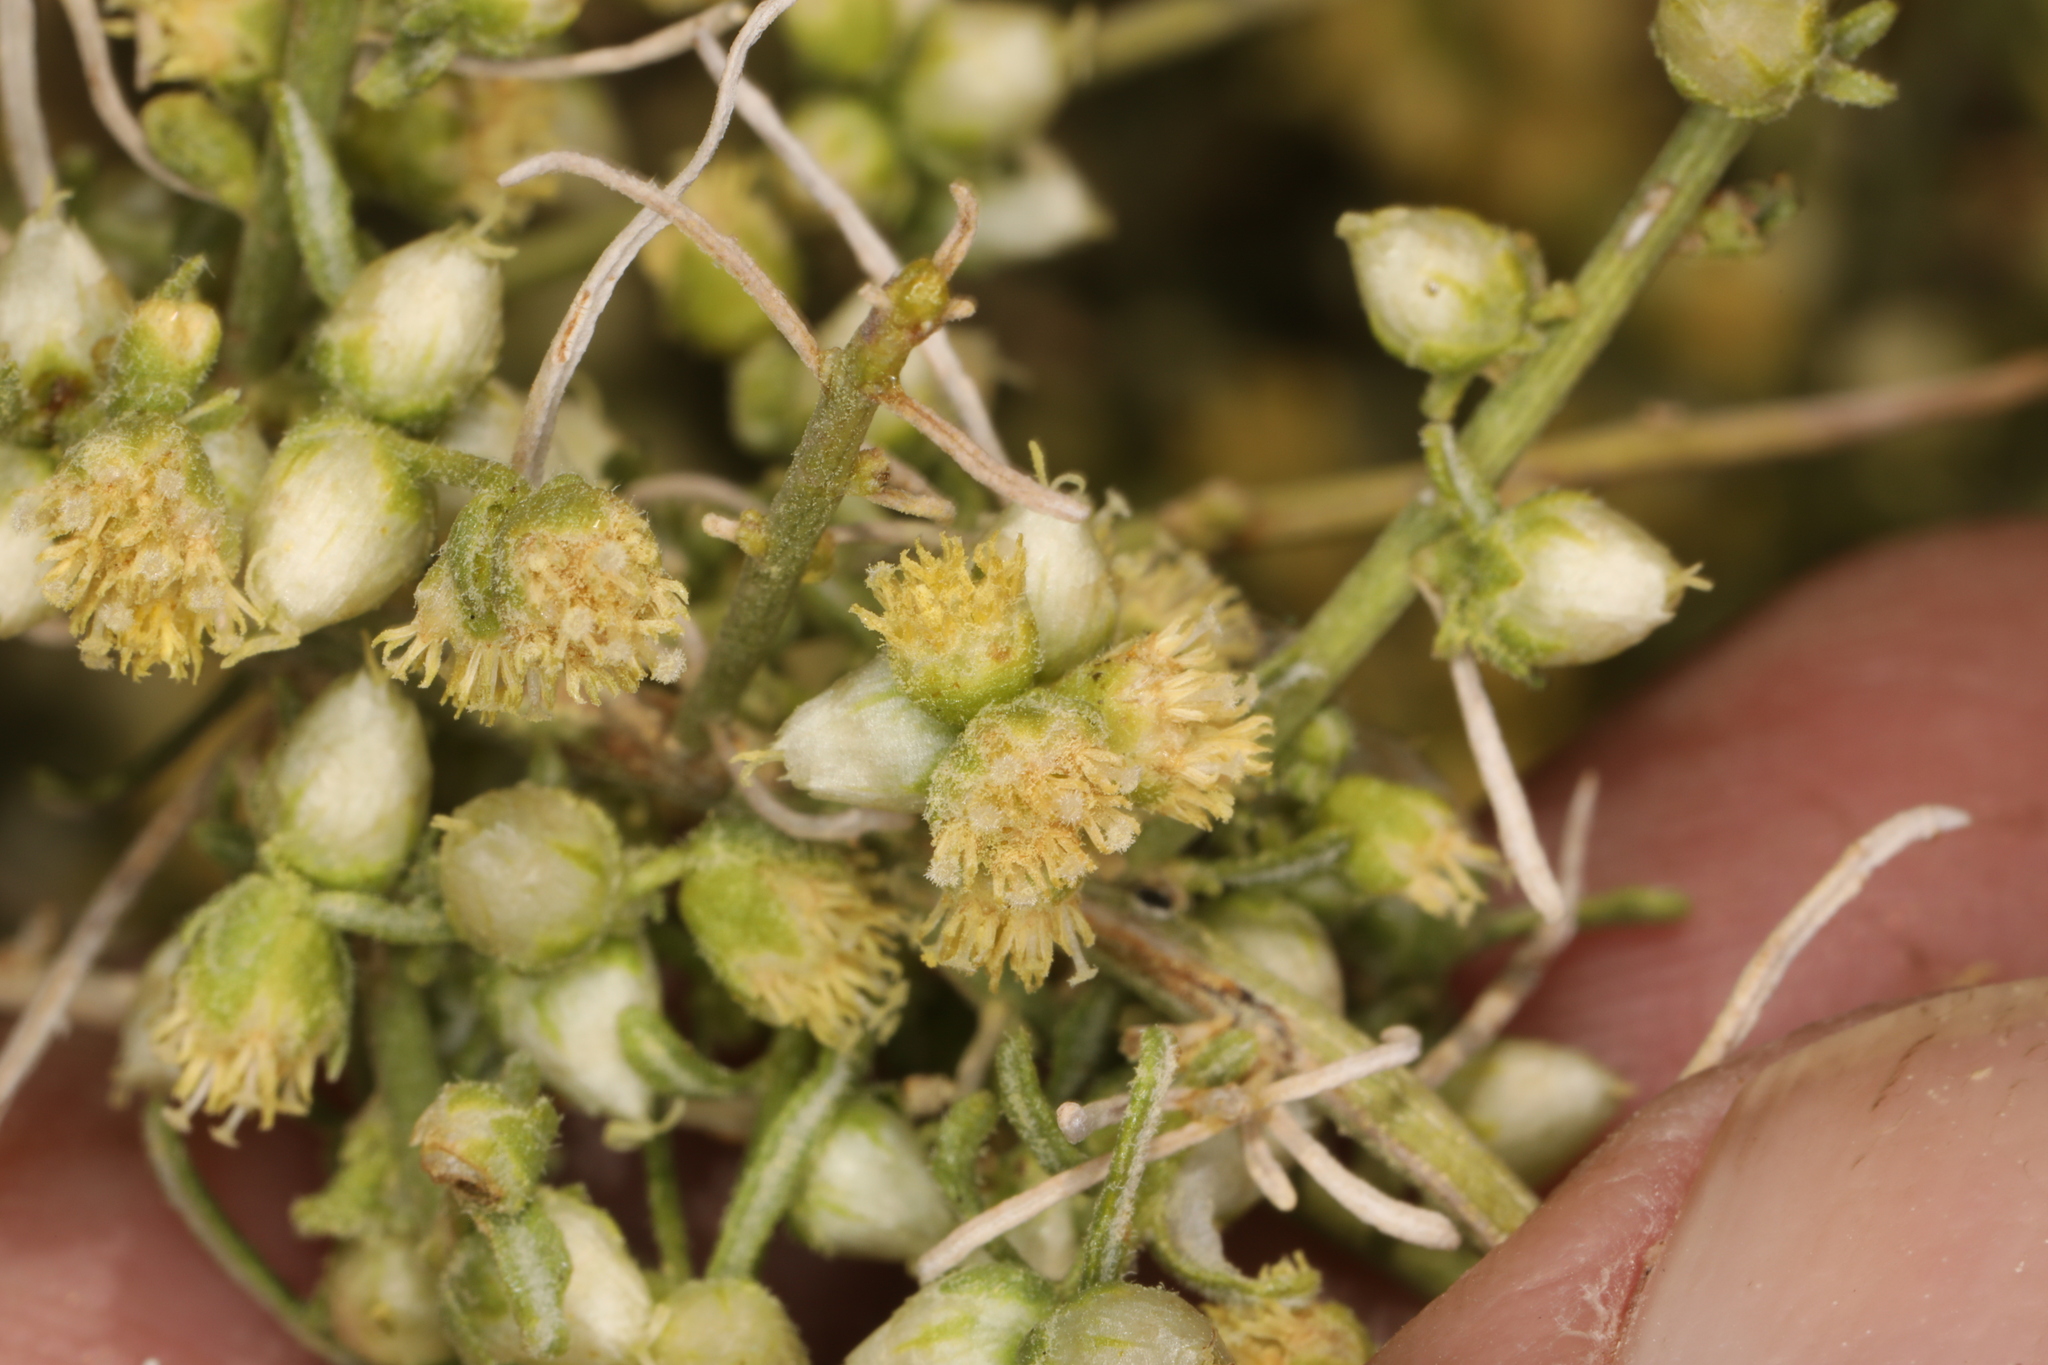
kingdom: Plantae
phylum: Tracheophyta
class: Magnoliopsida
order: Asterales
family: Asteraceae
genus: Ambrosia
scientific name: Ambrosia salsola
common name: Burrobrush
